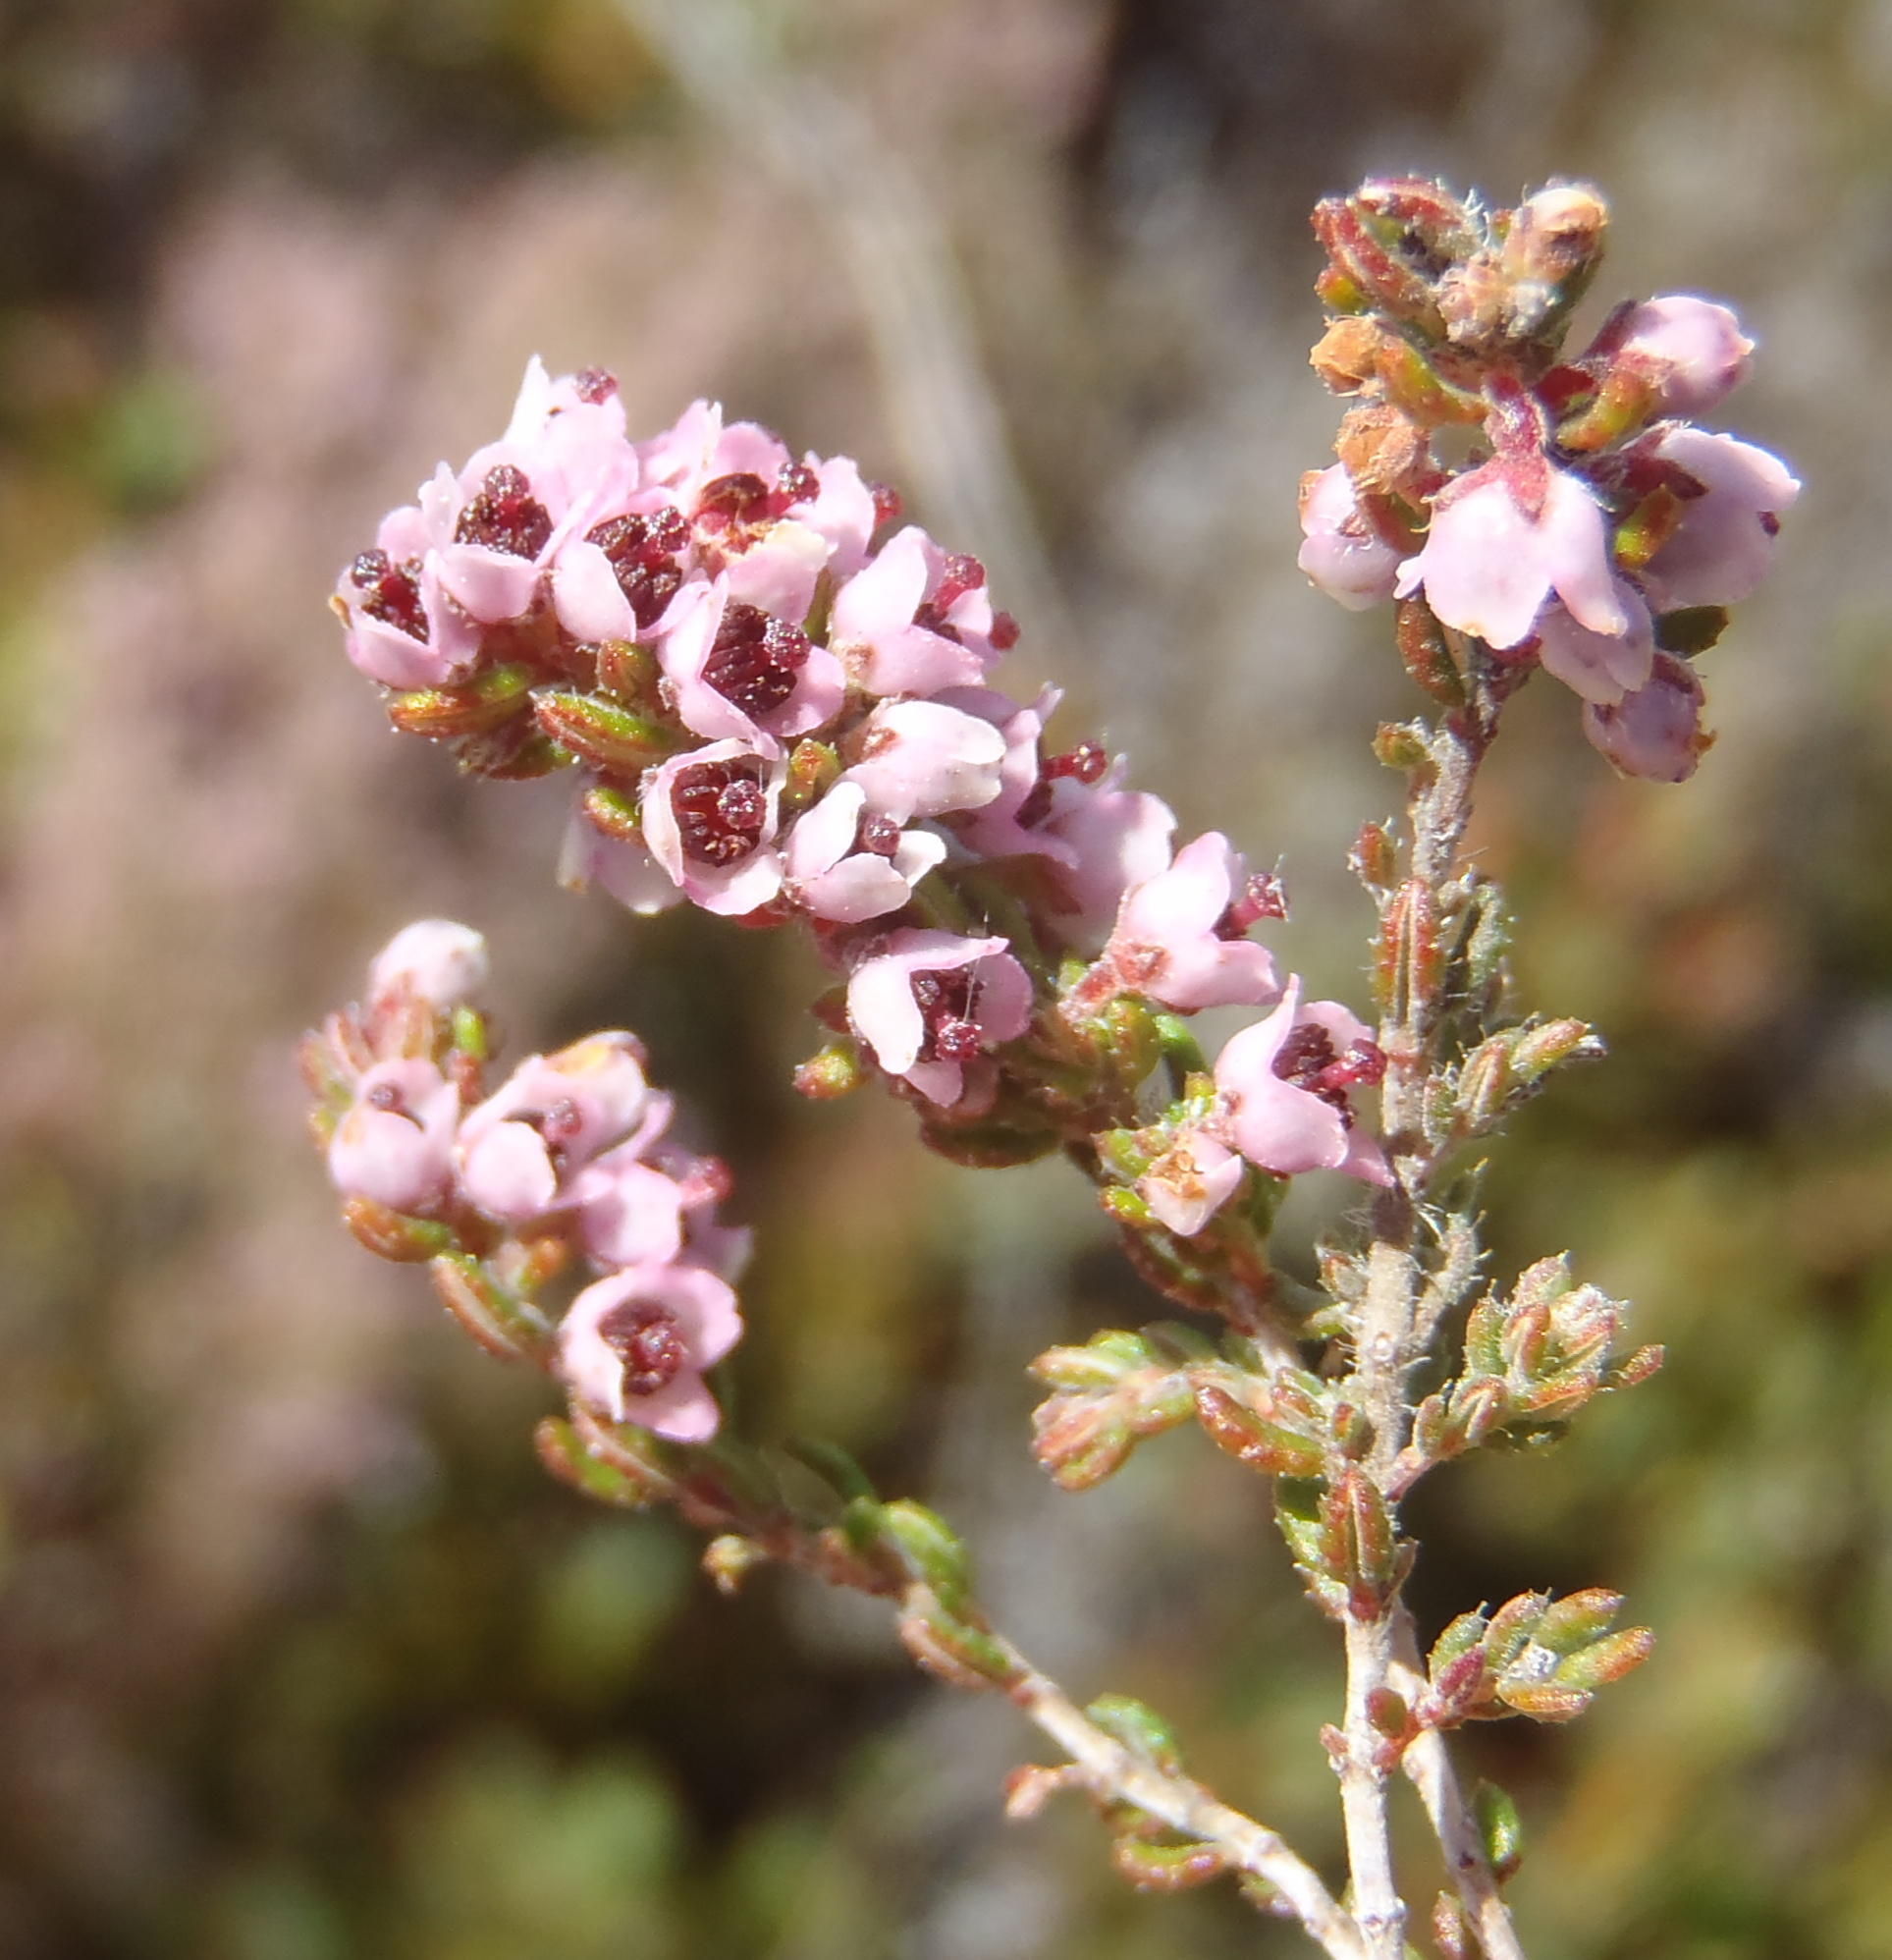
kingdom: Plantae
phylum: Tracheophyta
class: Magnoliopsida
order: Ericales
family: Ericaceae
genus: Erica
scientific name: Erica glandulipila
